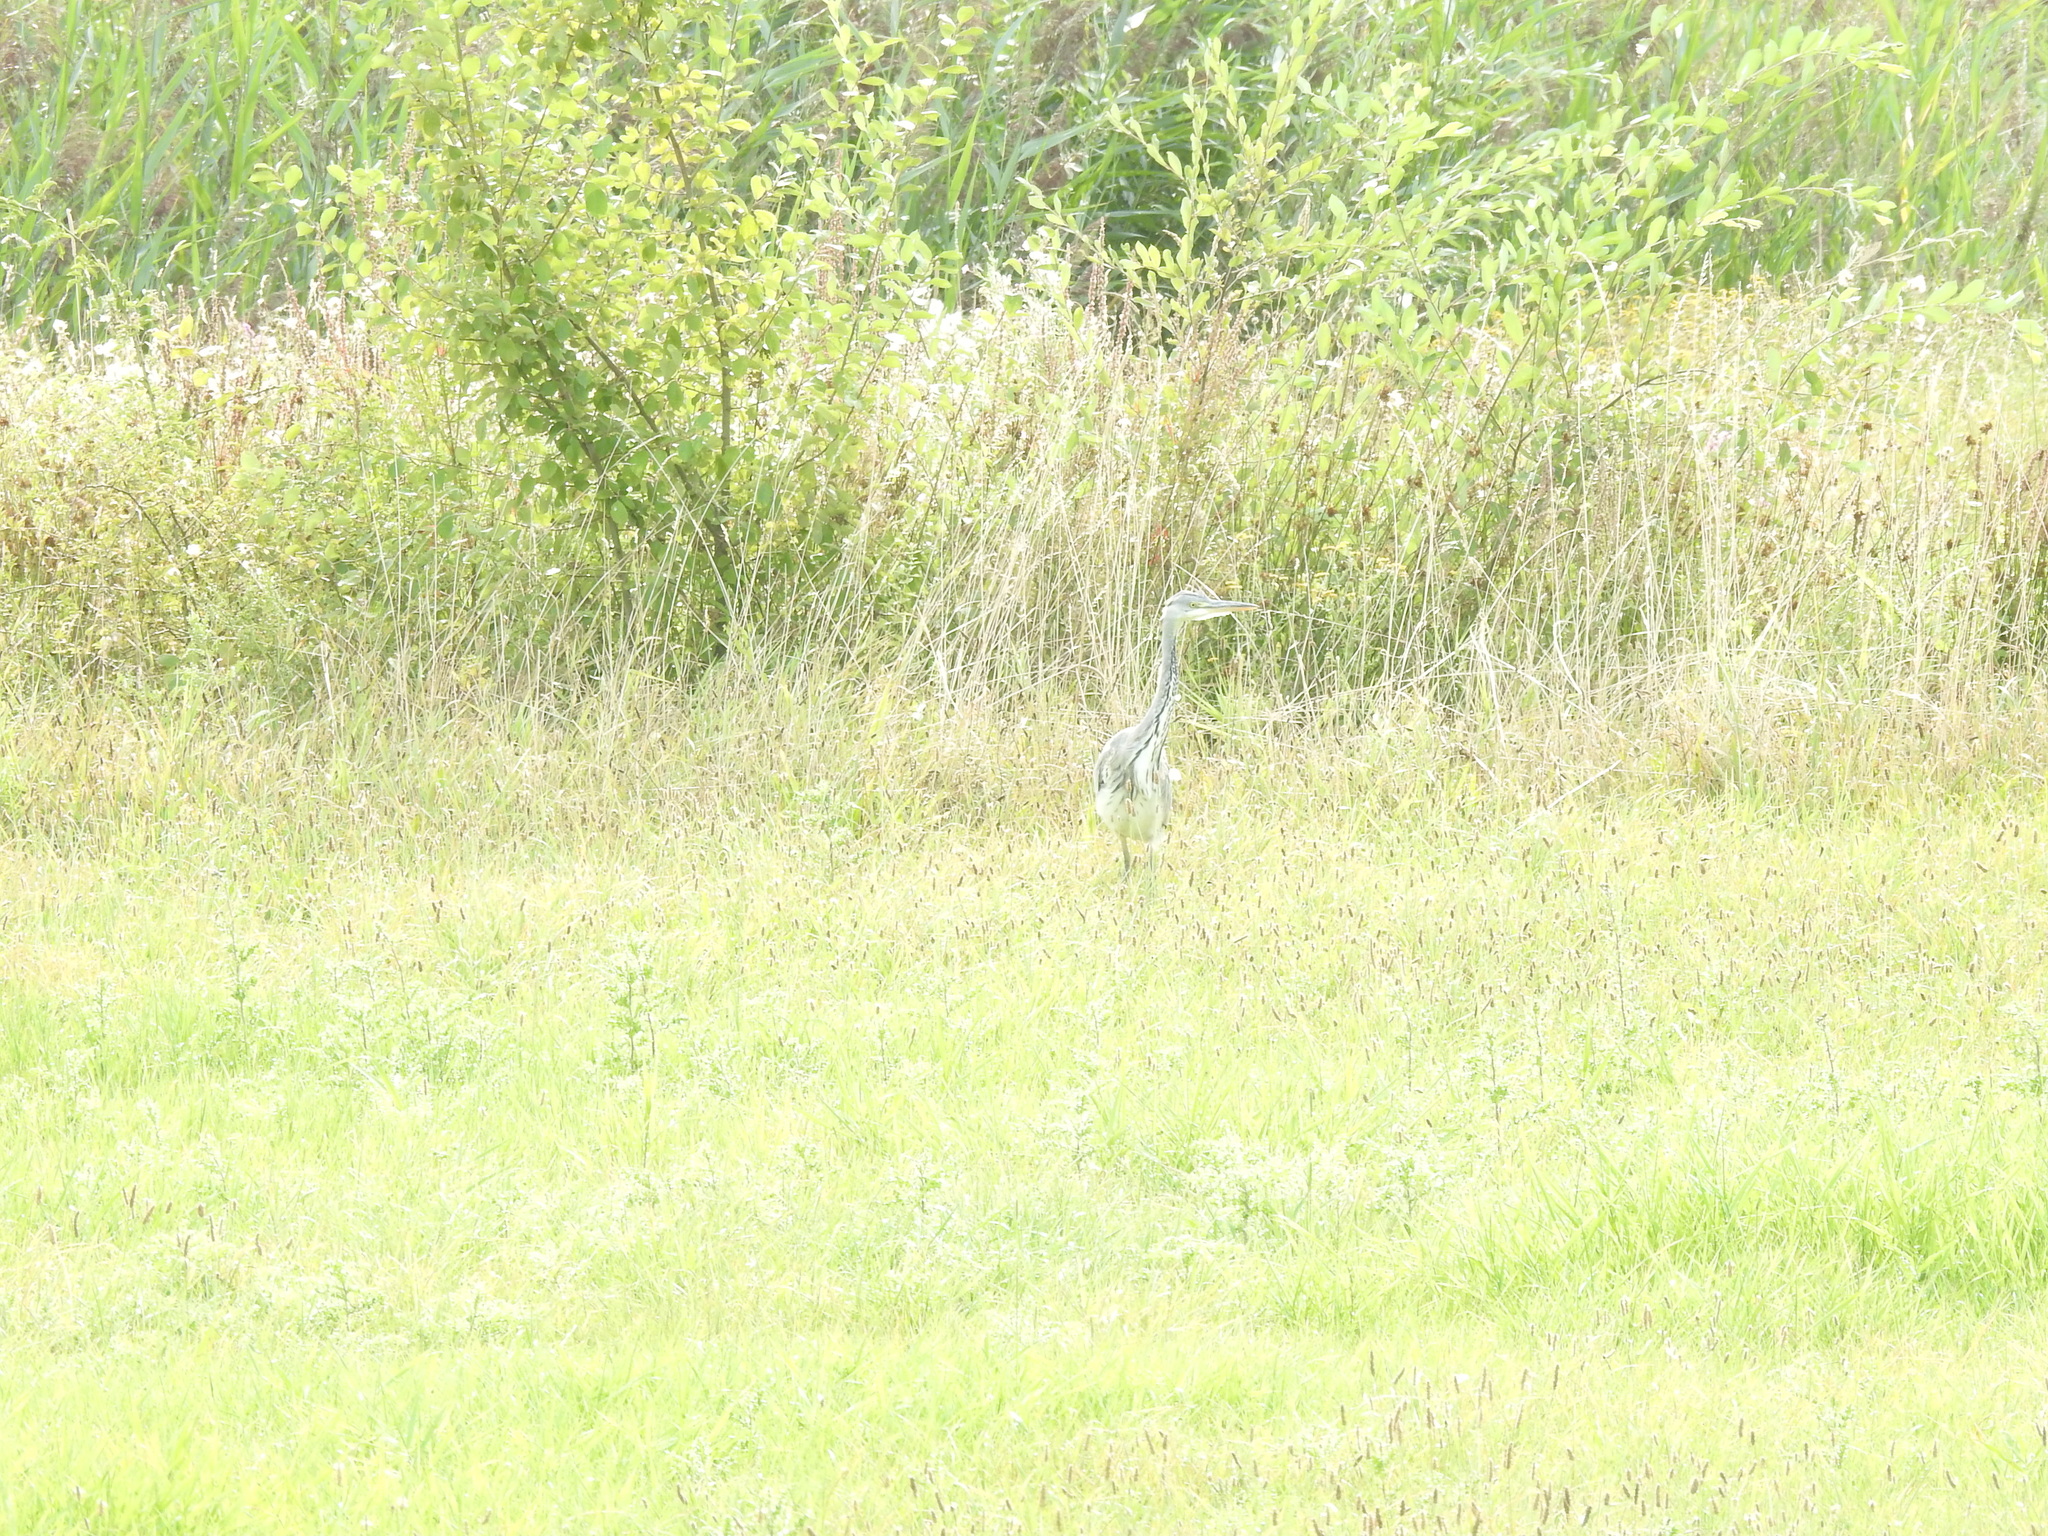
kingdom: Animalia
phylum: Chordata
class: Aves
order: Pelecaniformes
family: Ardeidae
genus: Ardea
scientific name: Ardea cinerea
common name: Grey heron
